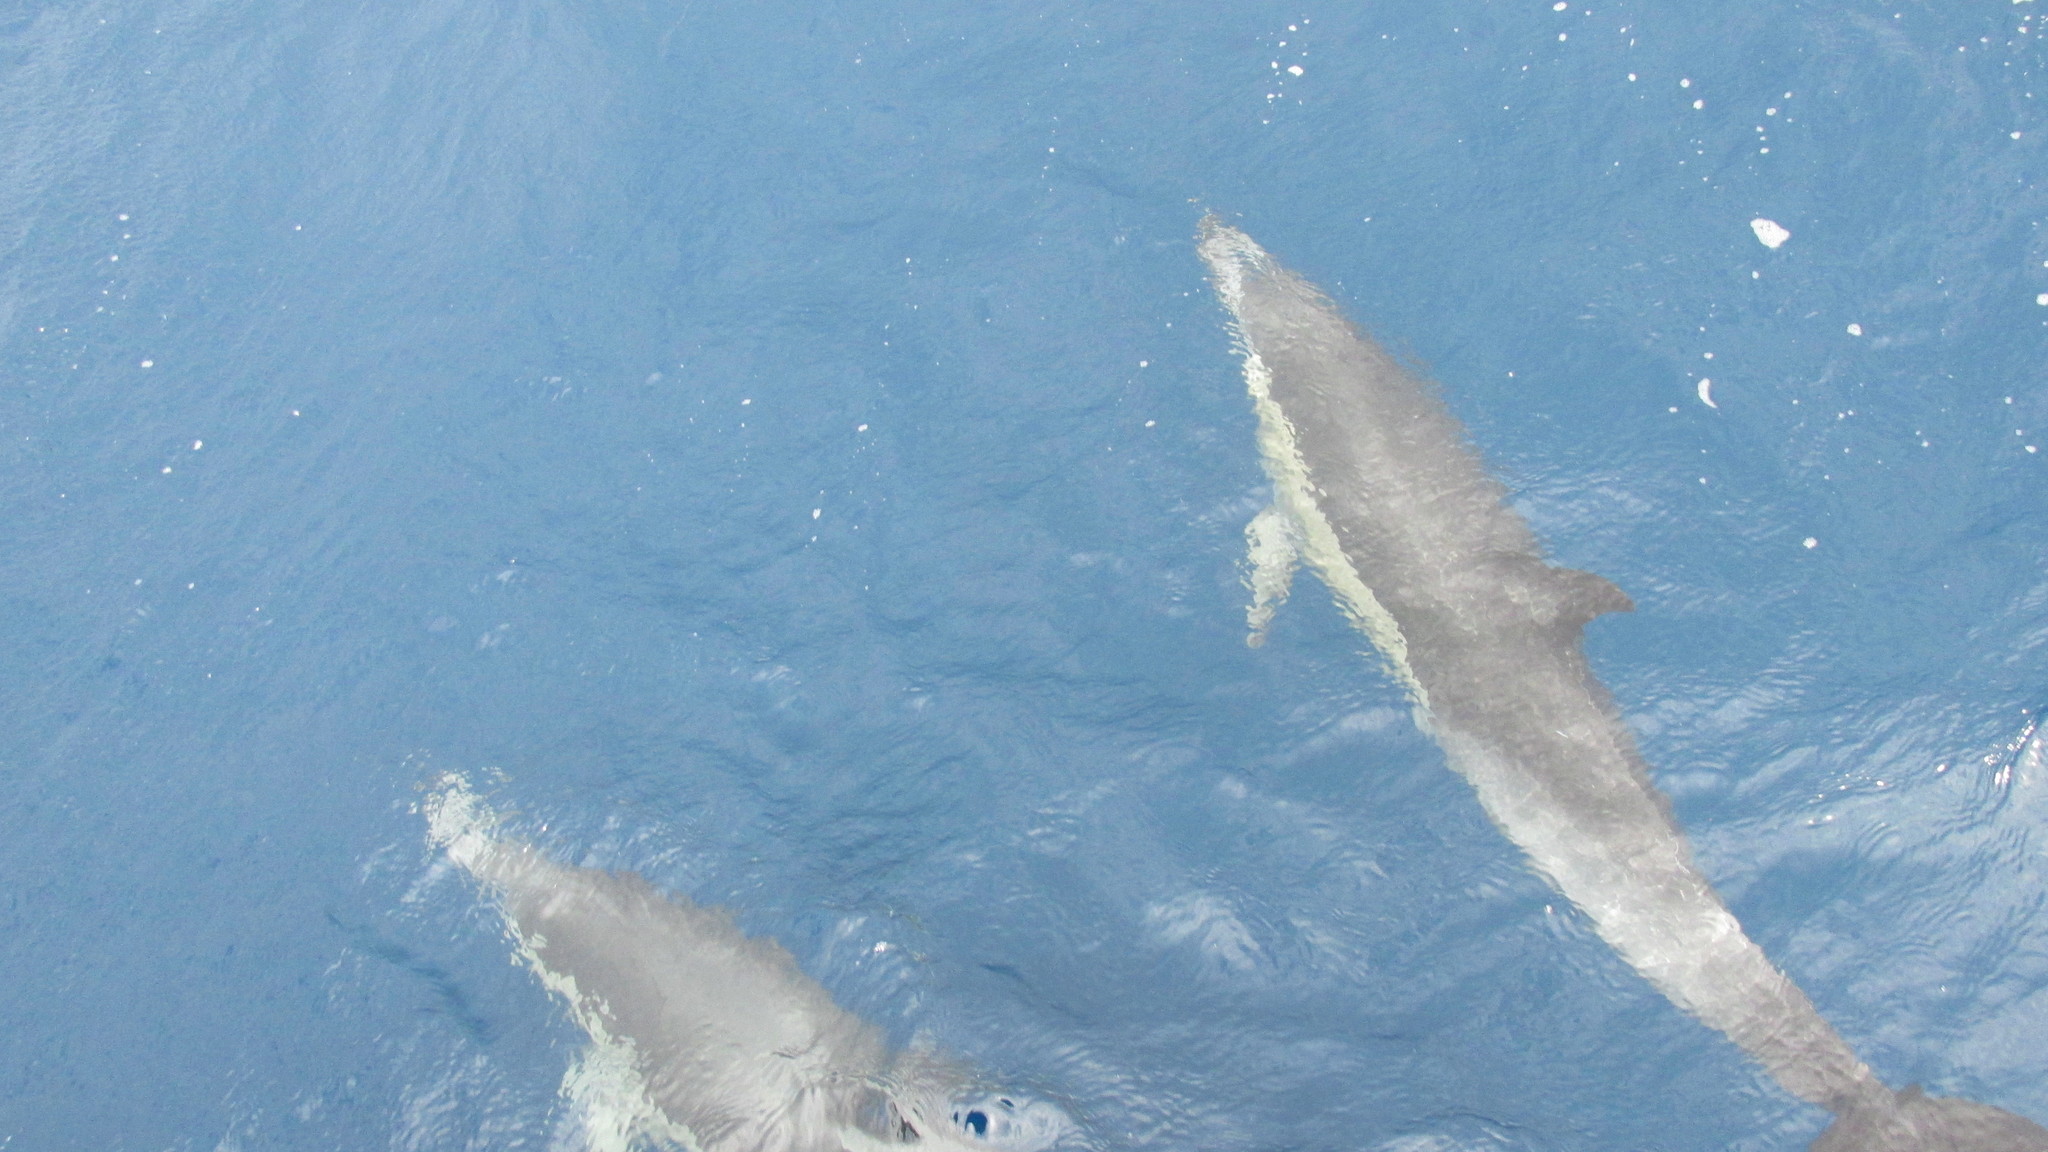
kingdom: Animalia
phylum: Chordata
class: Mammalia
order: Cetacea
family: Delphinidae
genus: Delphinus
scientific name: Delphinus delphis
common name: Common dolphin
